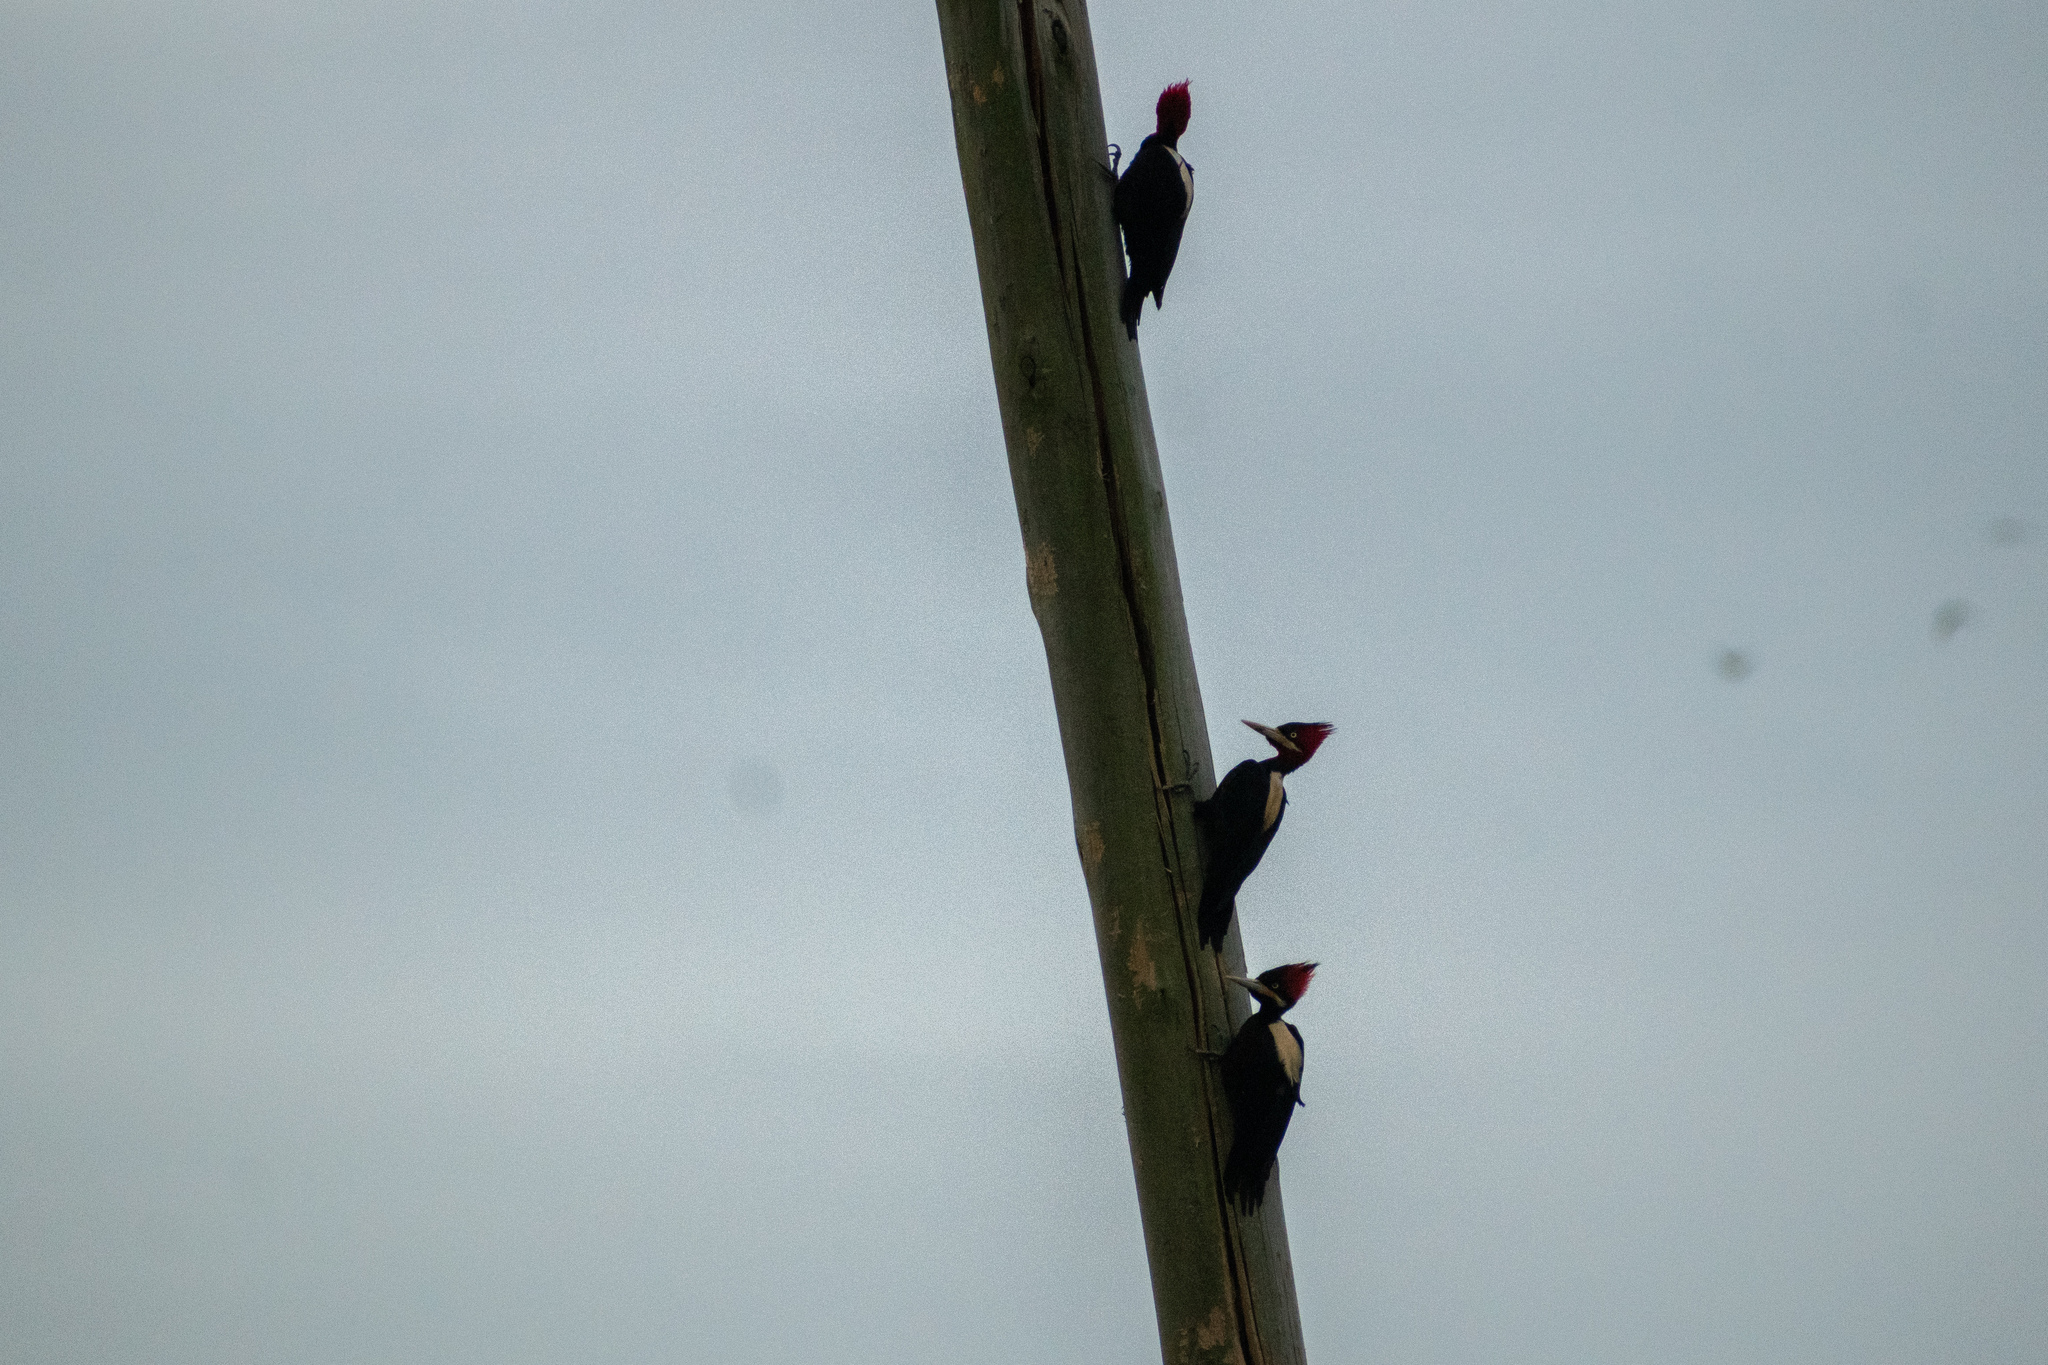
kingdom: Animalia
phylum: Chordata
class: Aves
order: Piciformes
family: Picidae
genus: Campephilus
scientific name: Campephilus leucopogon
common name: Cream-backed woodpecker
